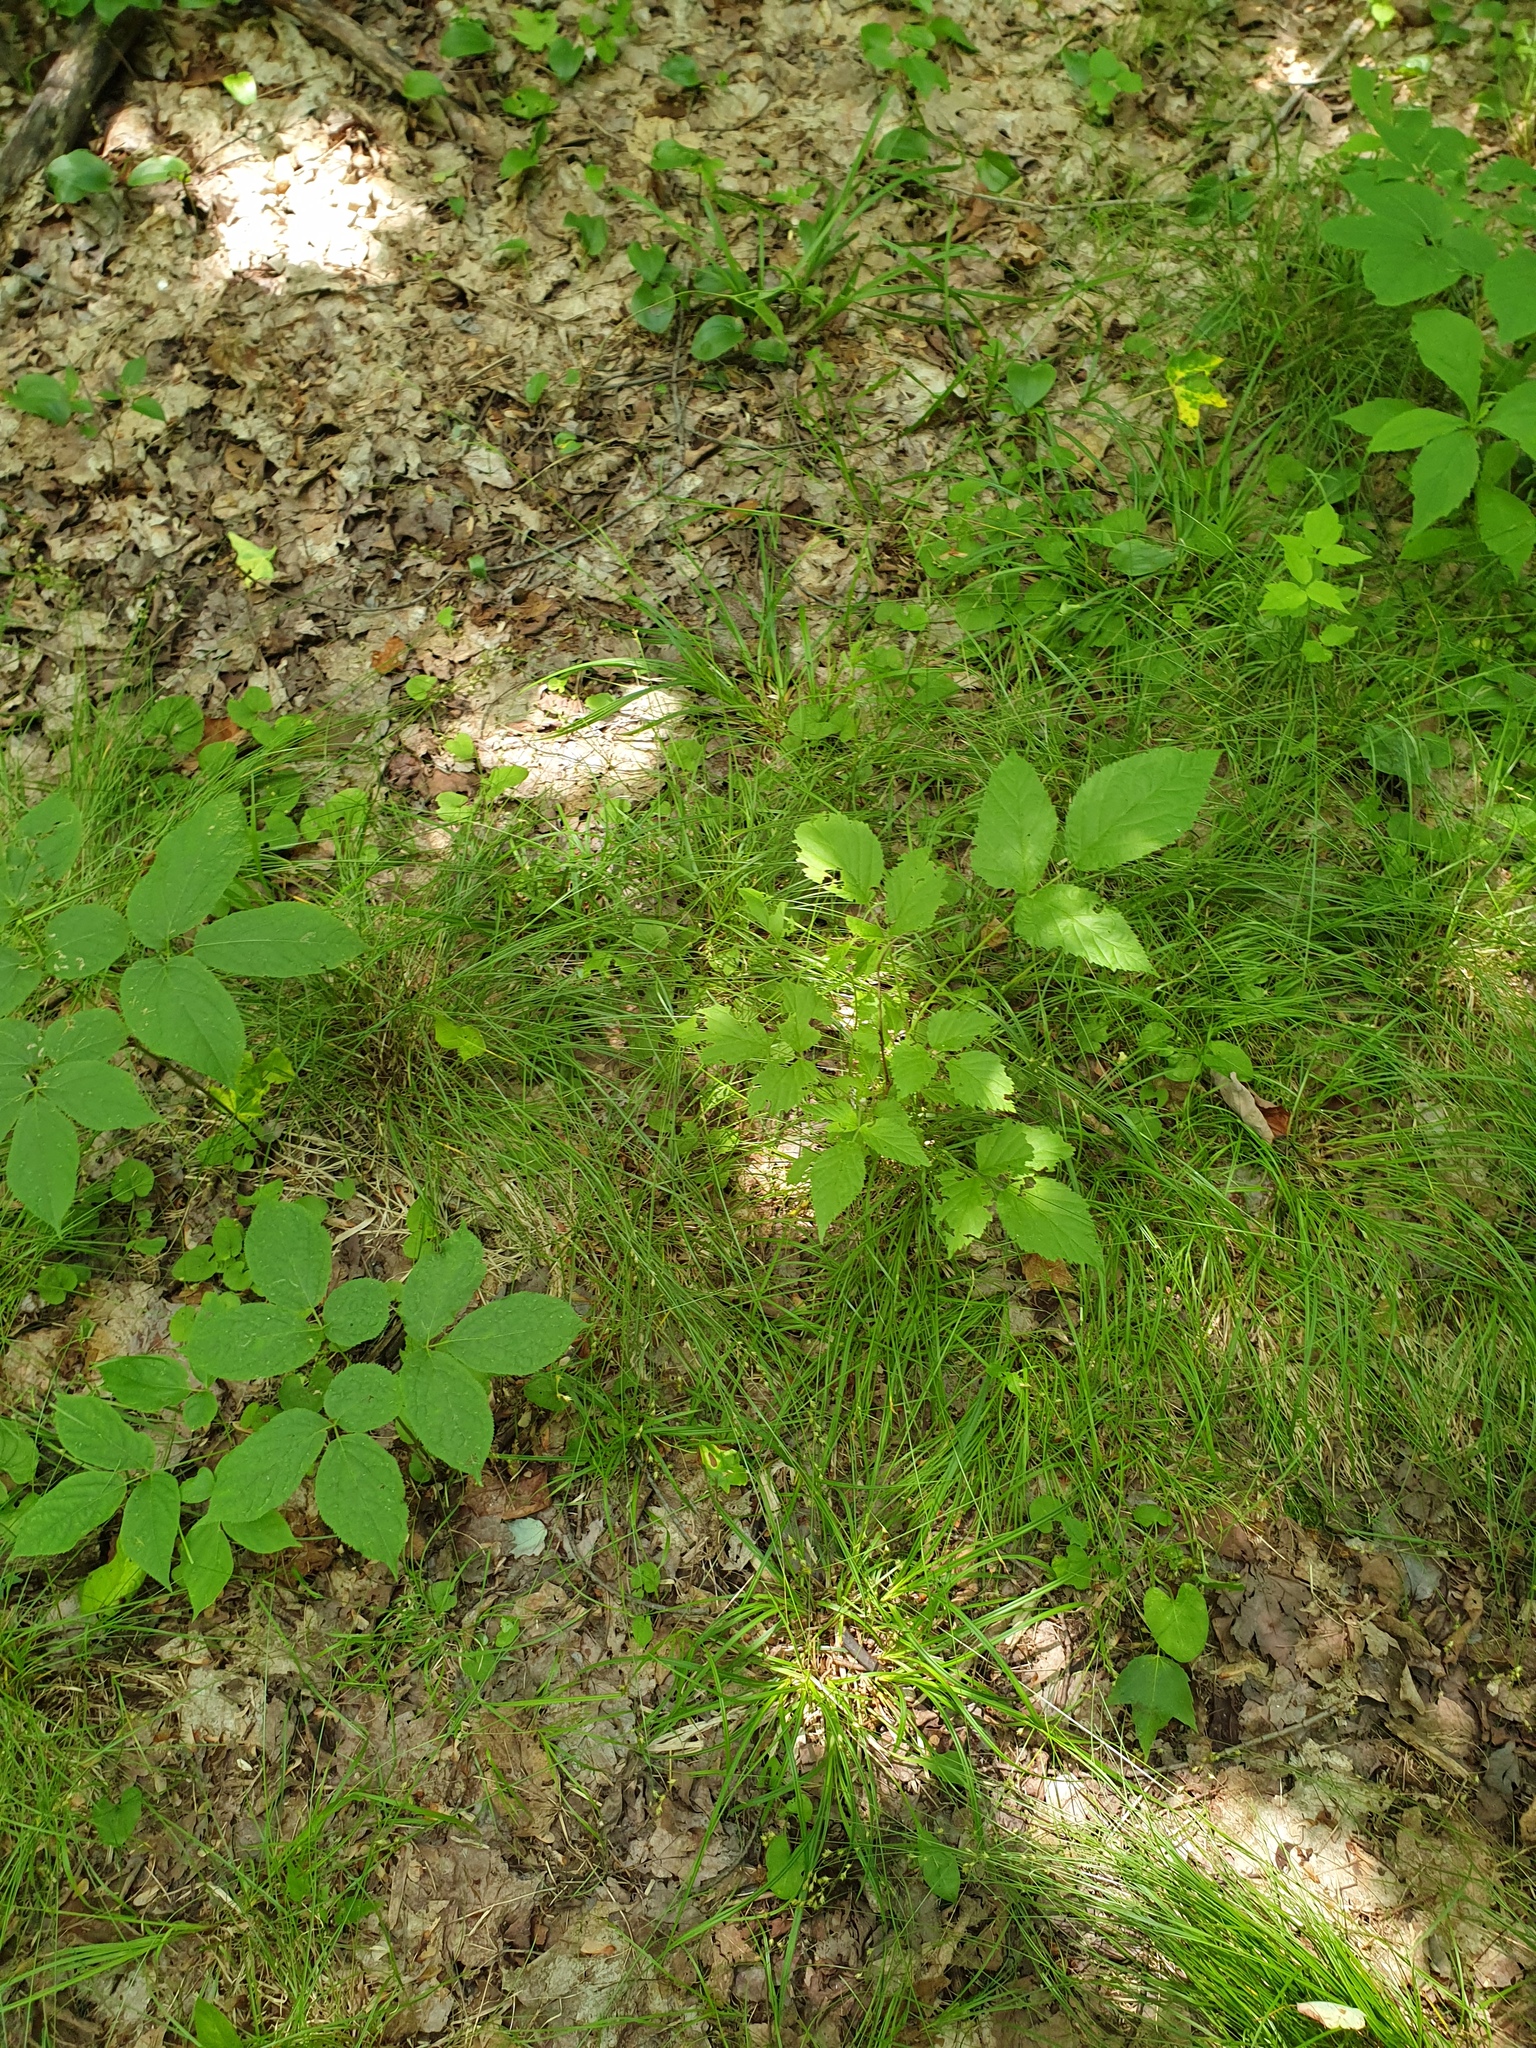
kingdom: Plantae
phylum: Tracheophyta
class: Magnoliopsida
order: Apiales
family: Araliaceae
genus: Aralia
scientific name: Aralia nudicaulis
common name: Wild sarsaparilla
